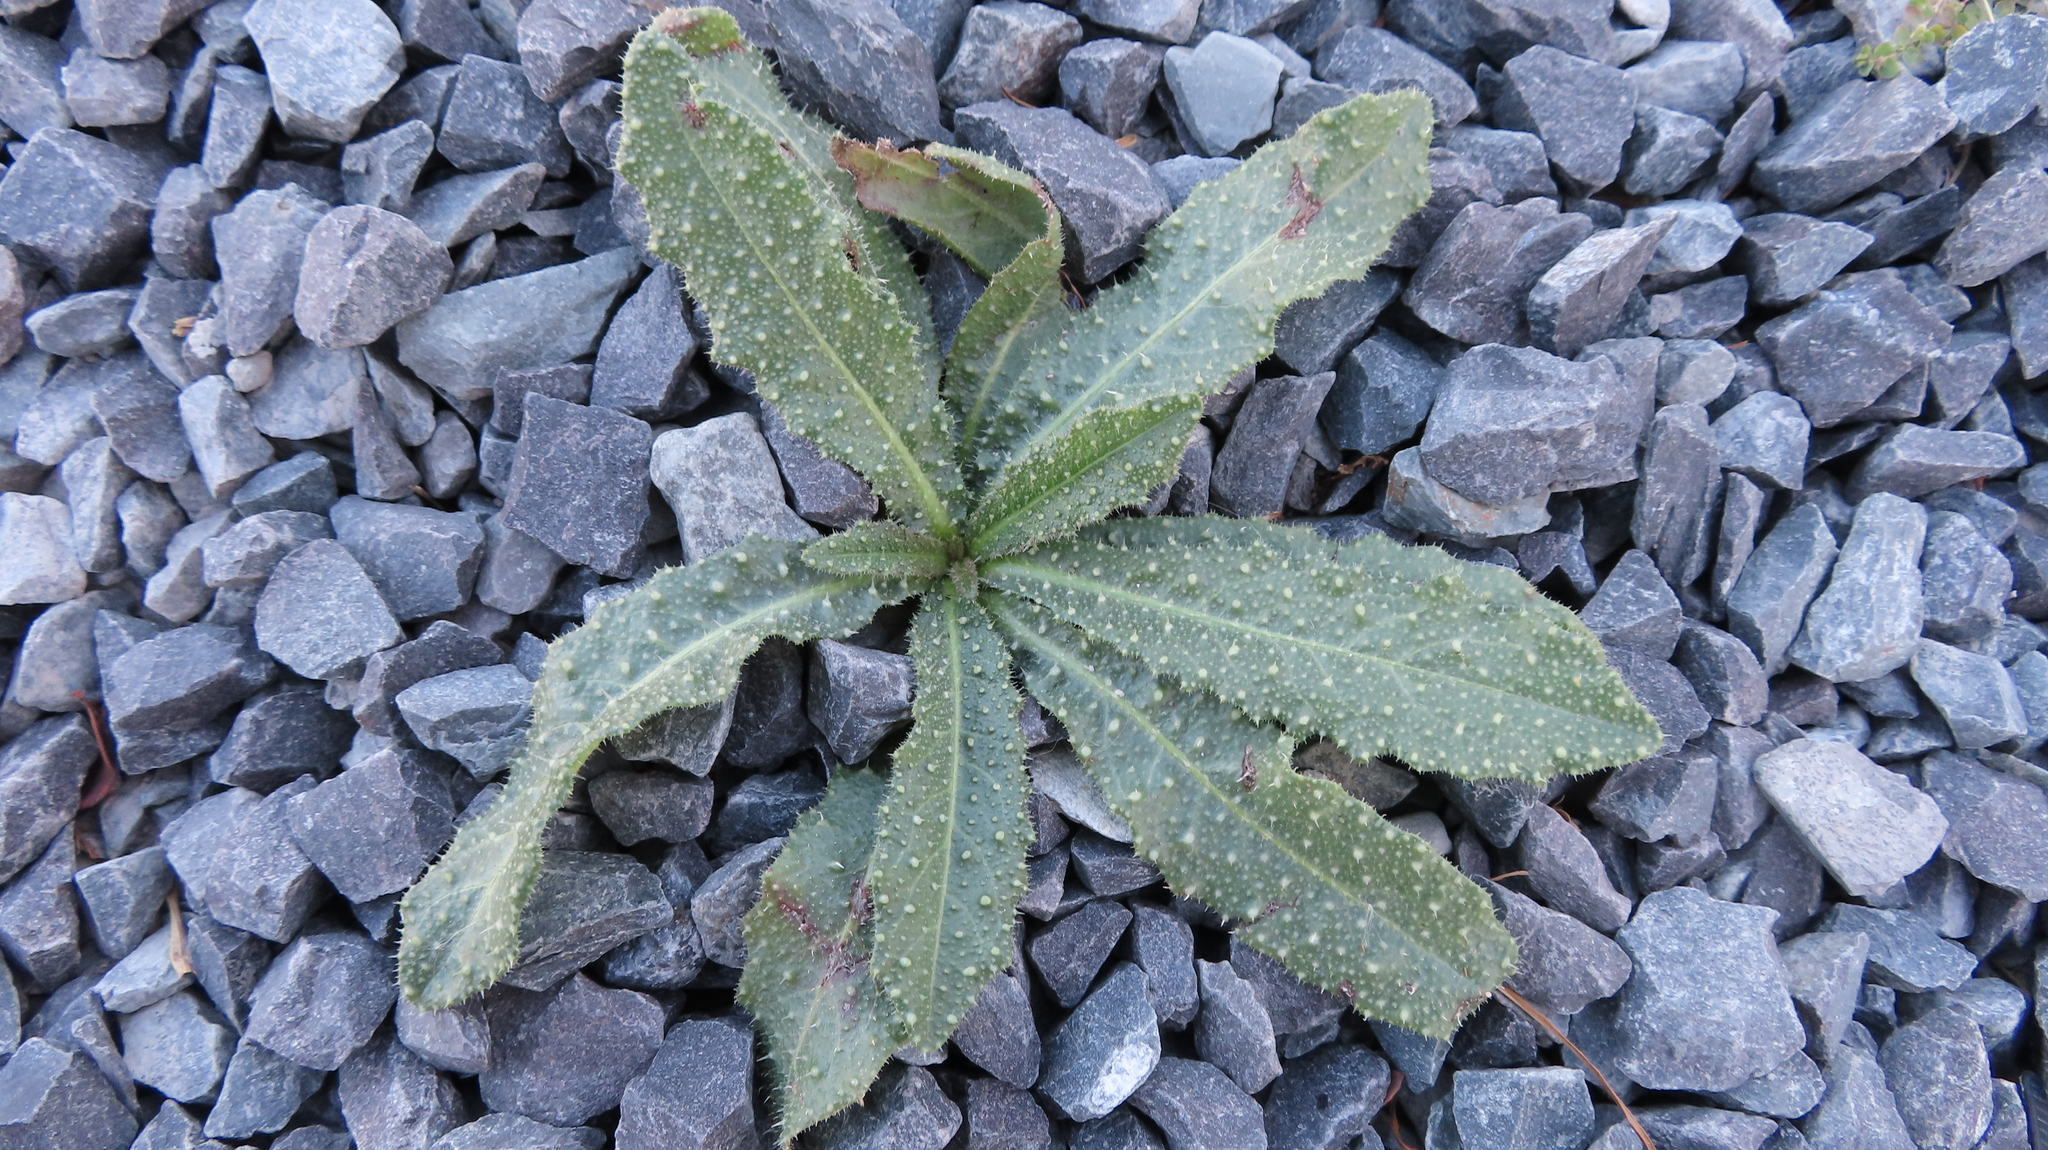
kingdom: Plantae
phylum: Tracheophyta
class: Magnoliopsida
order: Asterales
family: Asteraceae
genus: Helminthotheca
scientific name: Helminthotheca echioides
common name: Ox-tongue
